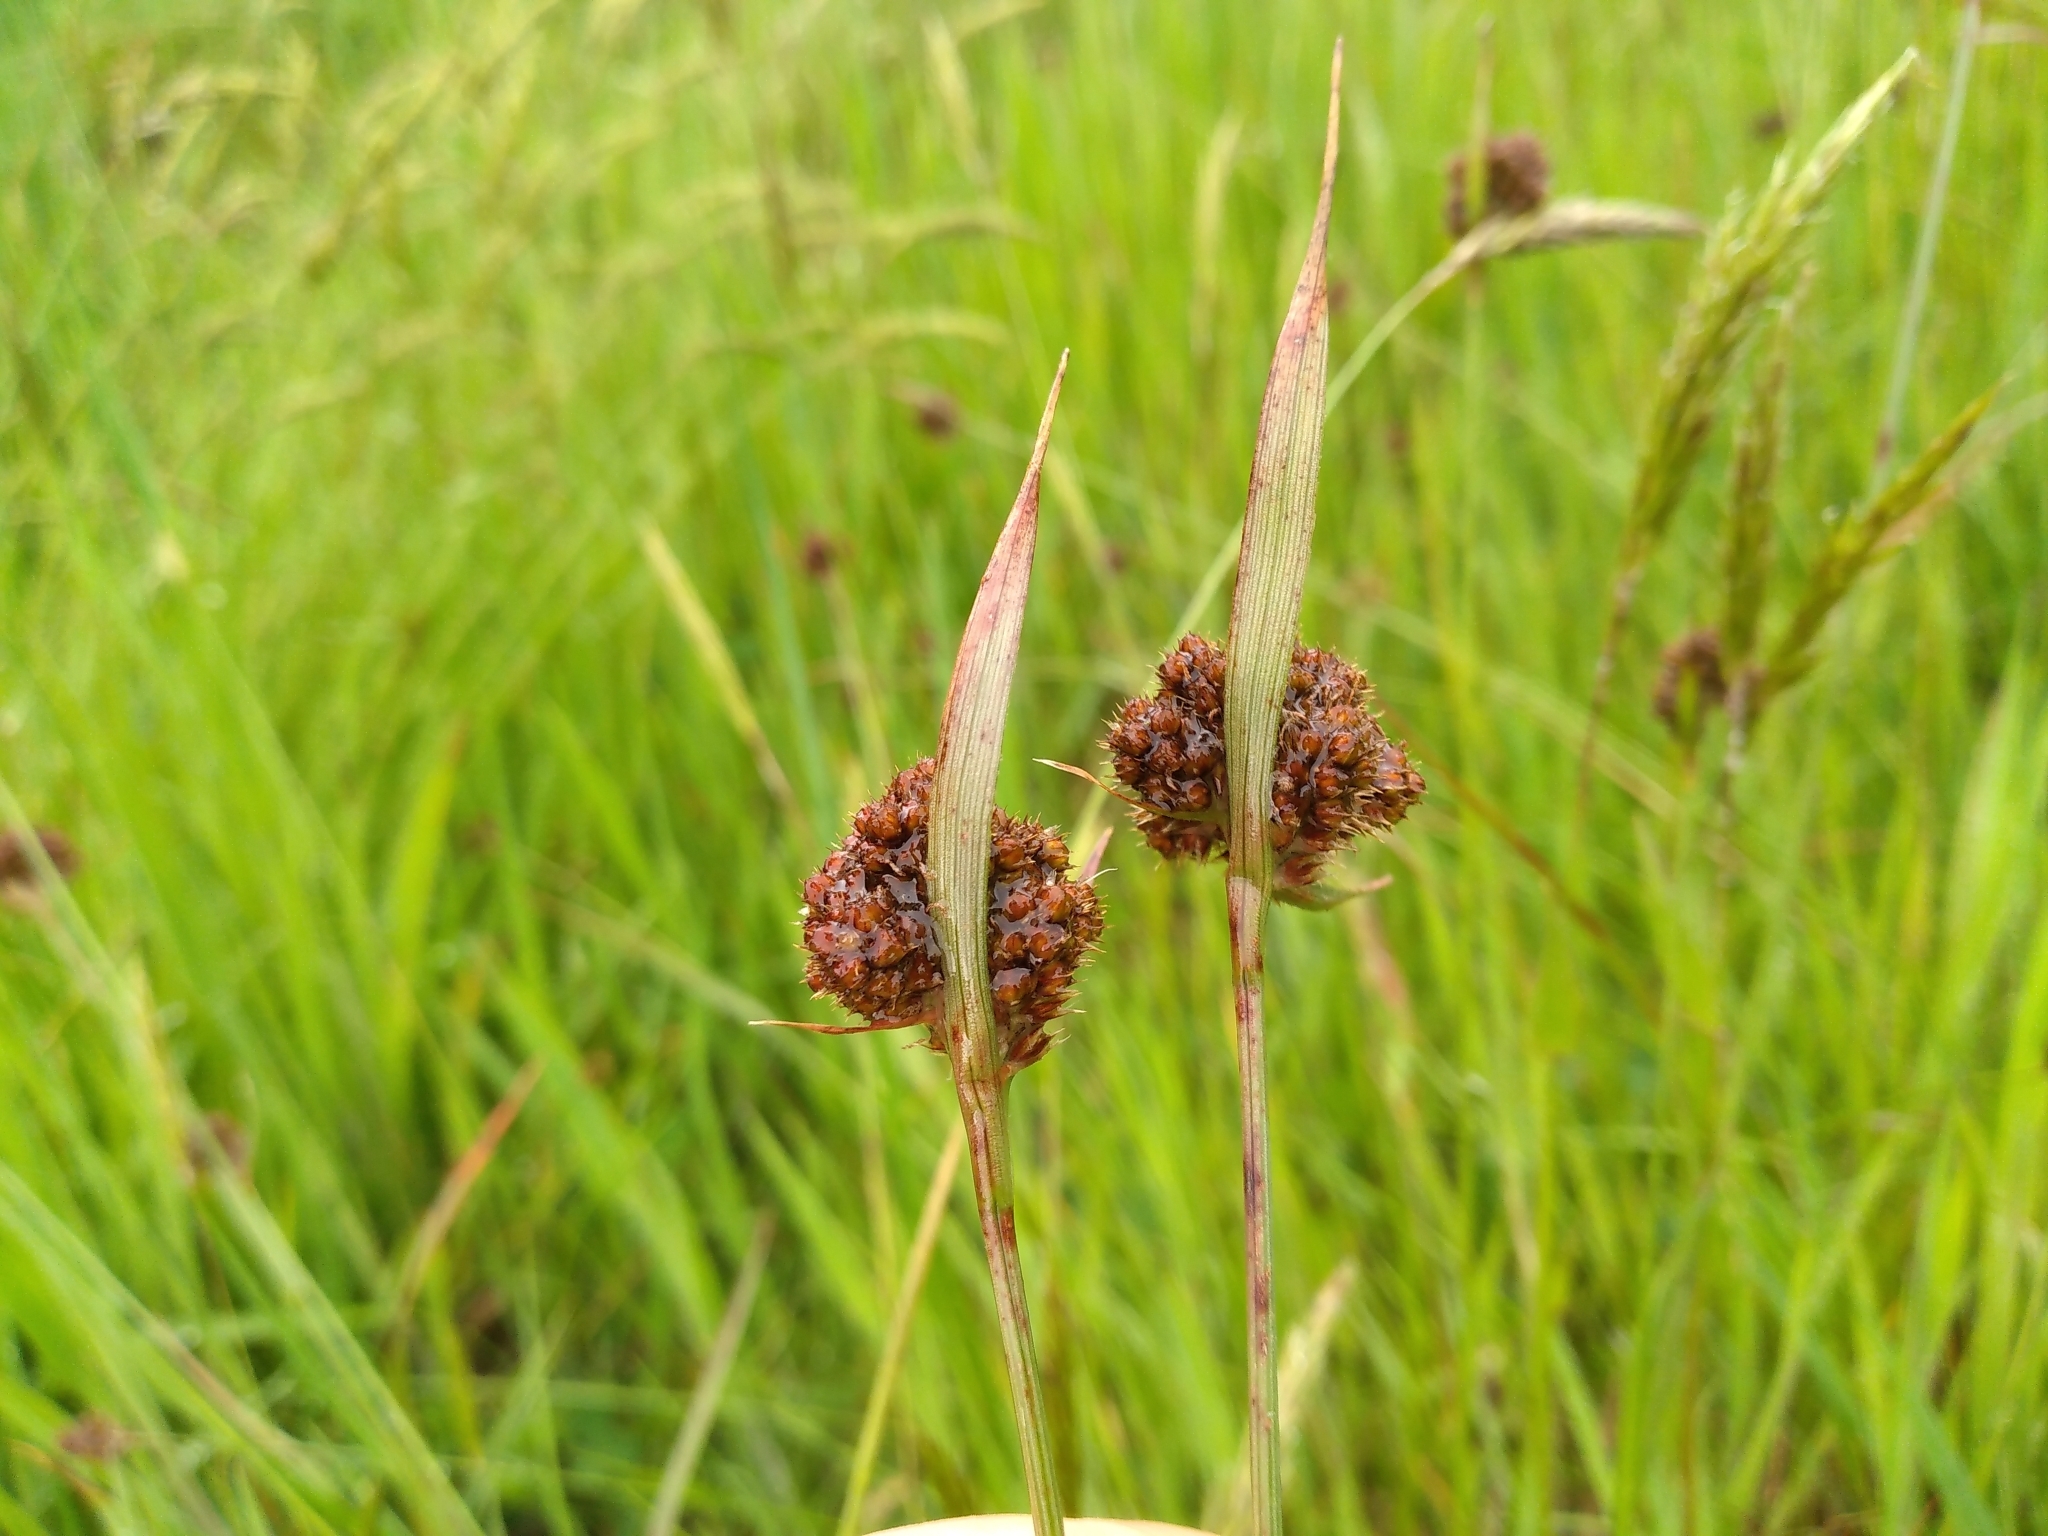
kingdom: Plantae
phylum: Tracheophyta
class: Liliopsida
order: Poales
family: Juncaceae
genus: Luzula
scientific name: Luzula congesta
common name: Heath woodrush
